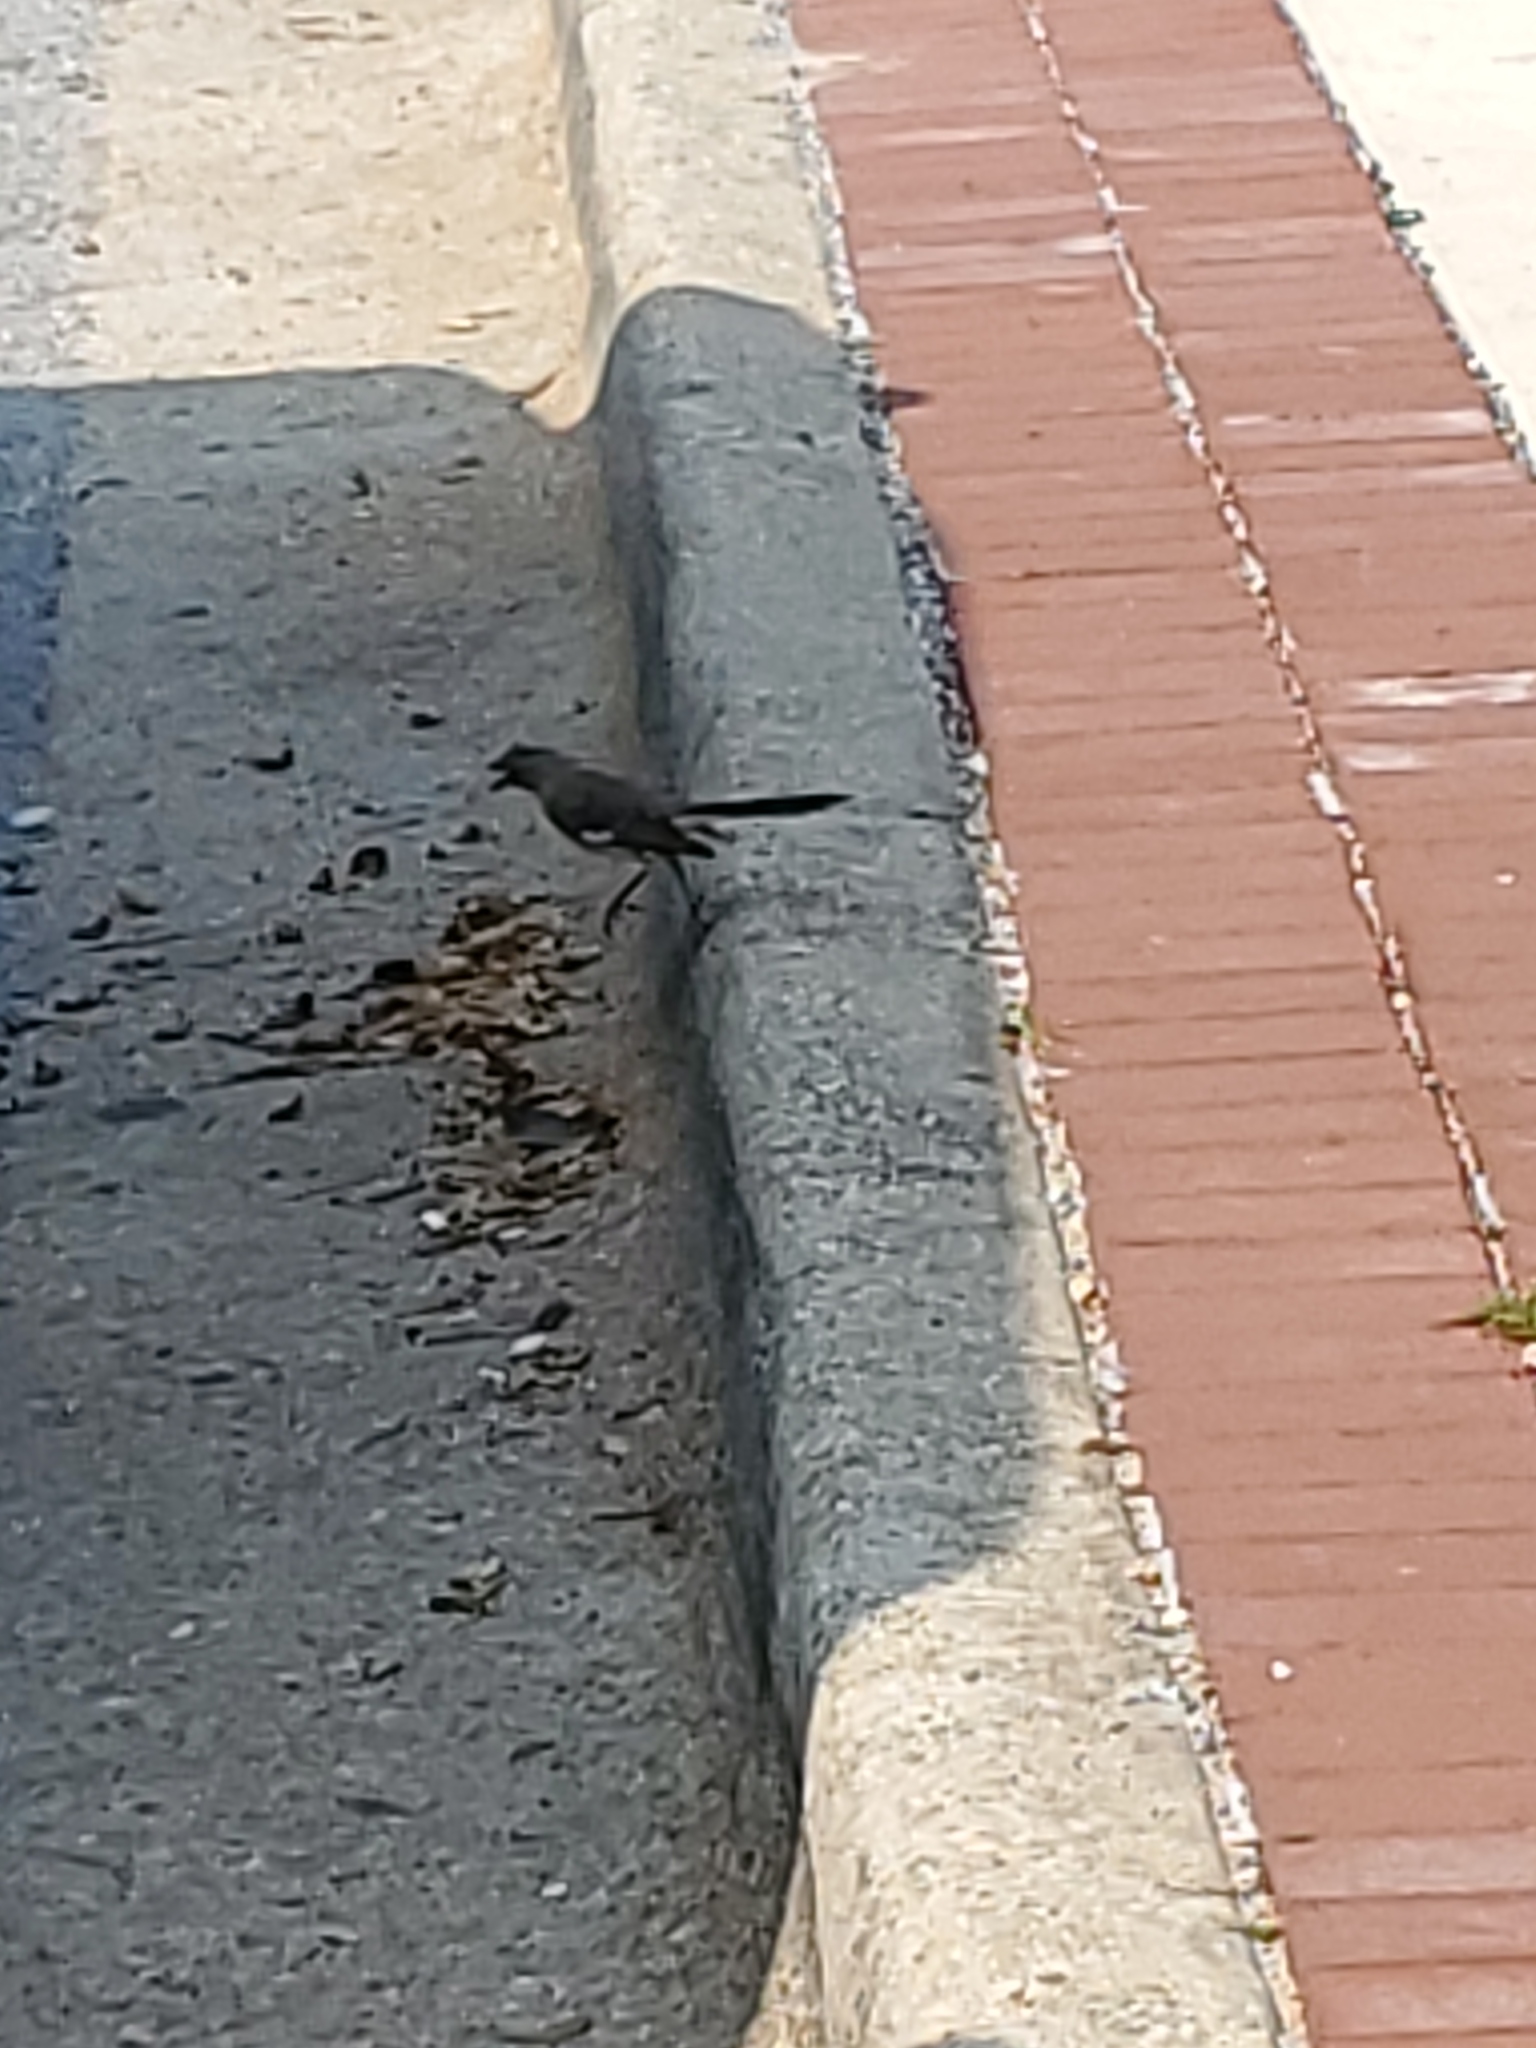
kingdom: Animalia
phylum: Chordata
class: Aves
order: Passeriformes
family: Mimidae
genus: Mimus
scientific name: Mimus polyglottos
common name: Northern mockingbird
